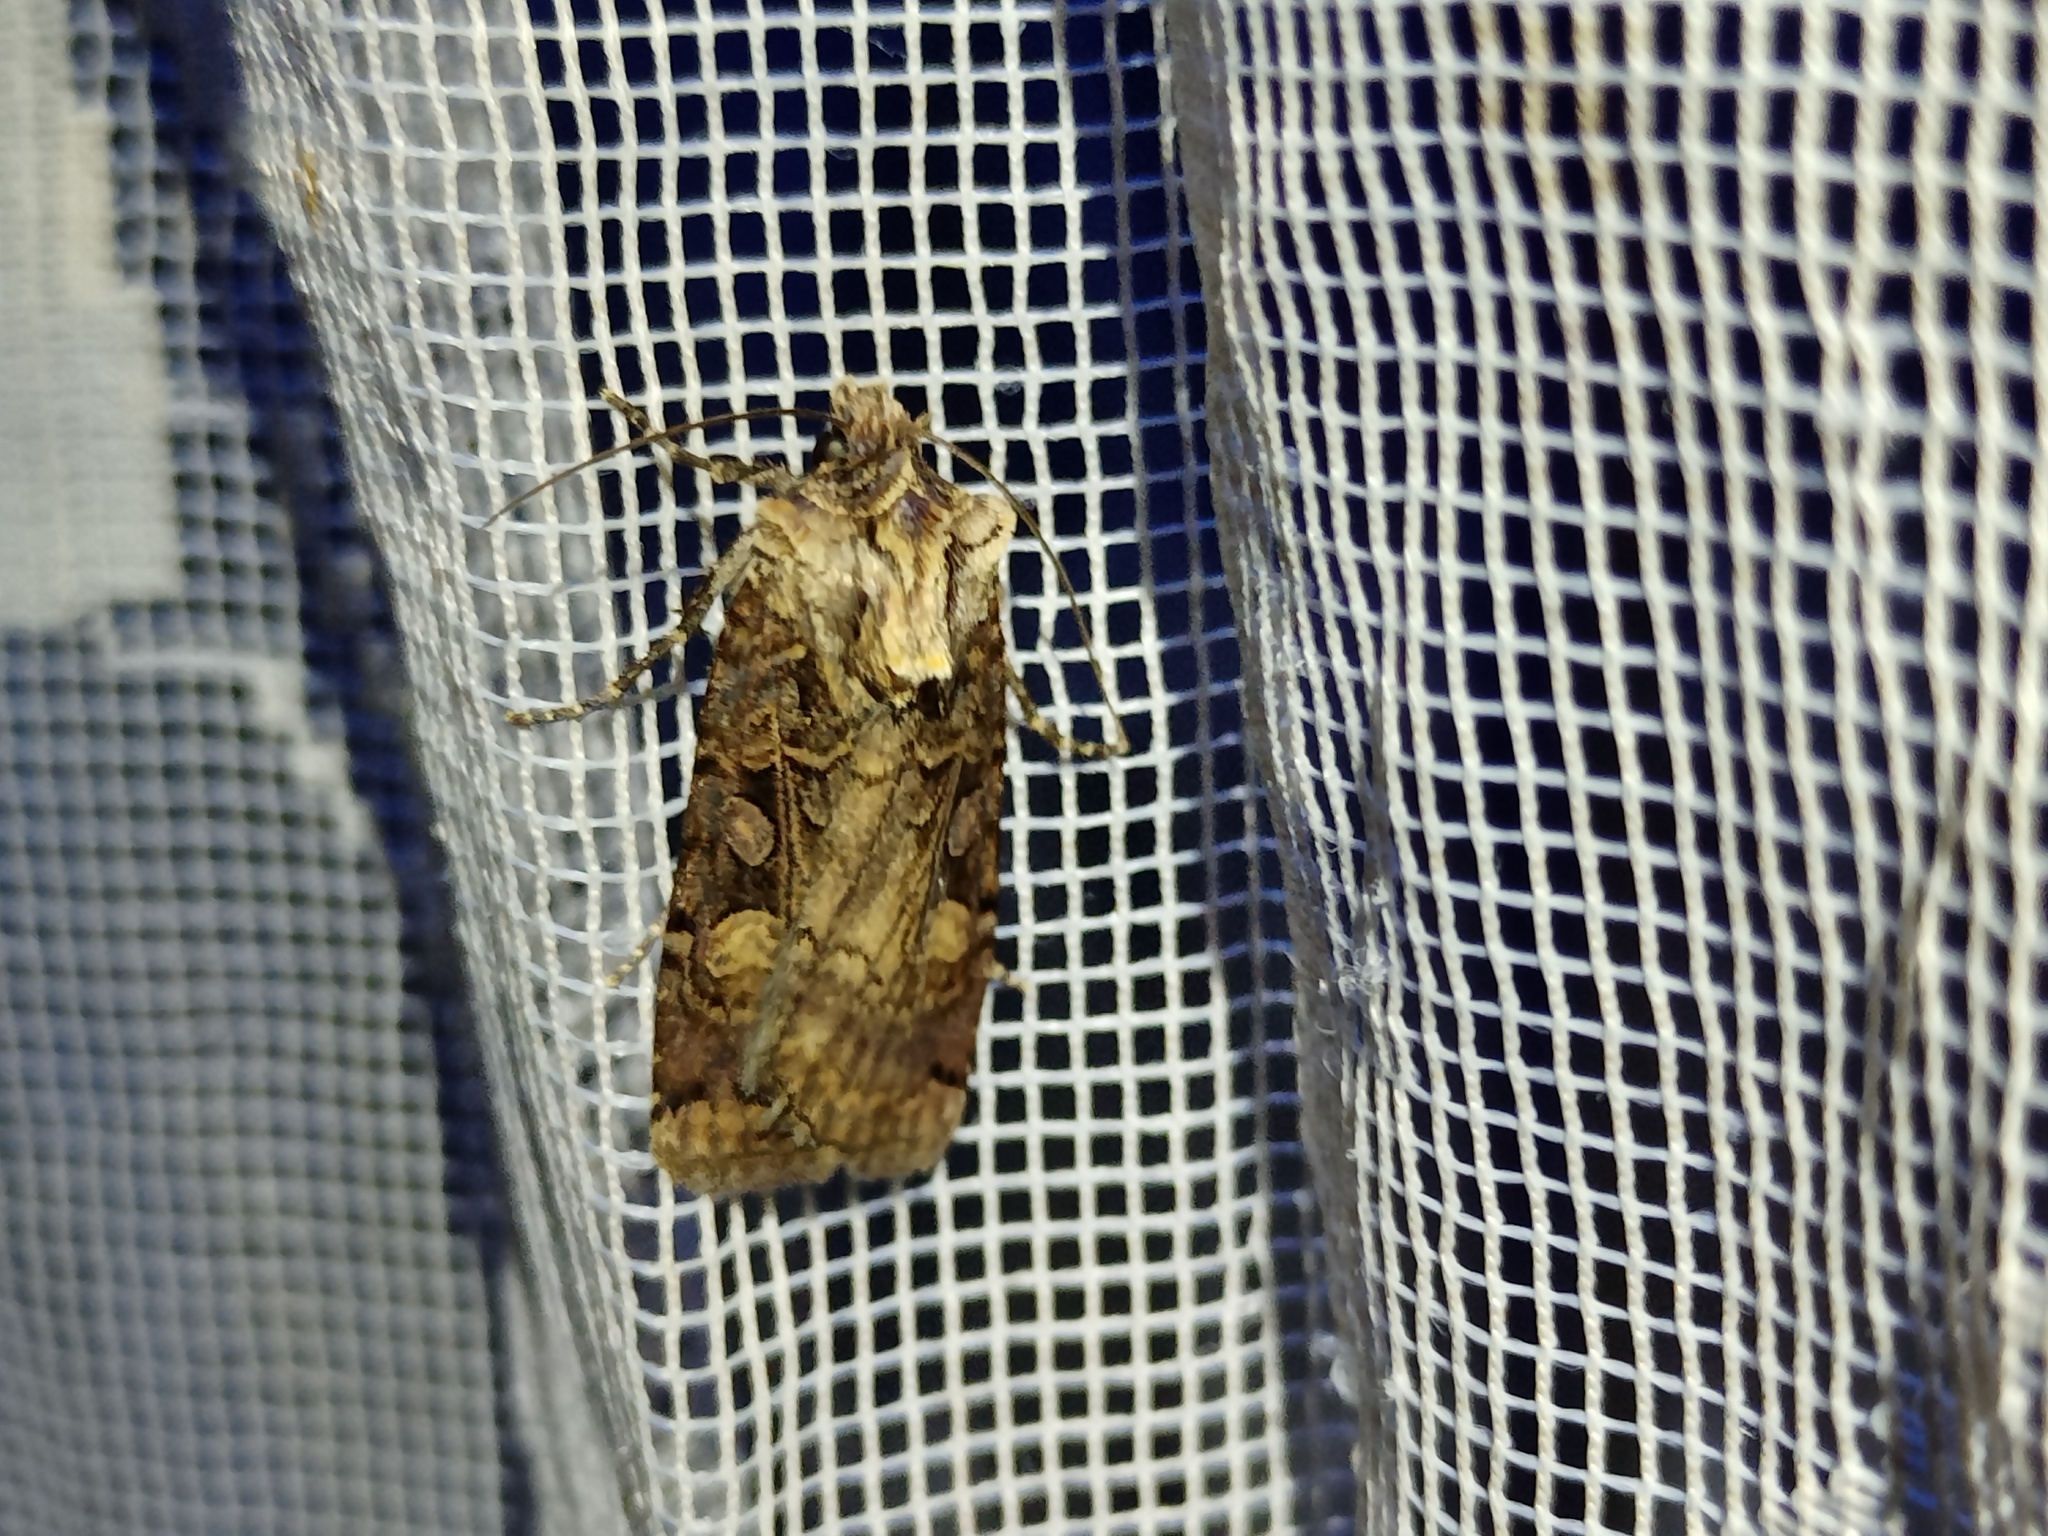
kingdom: Animalia
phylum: Arthropoda
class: Insecta
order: Lepidoptera
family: Noctuidae
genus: Opigena
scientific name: Opigena polygona
